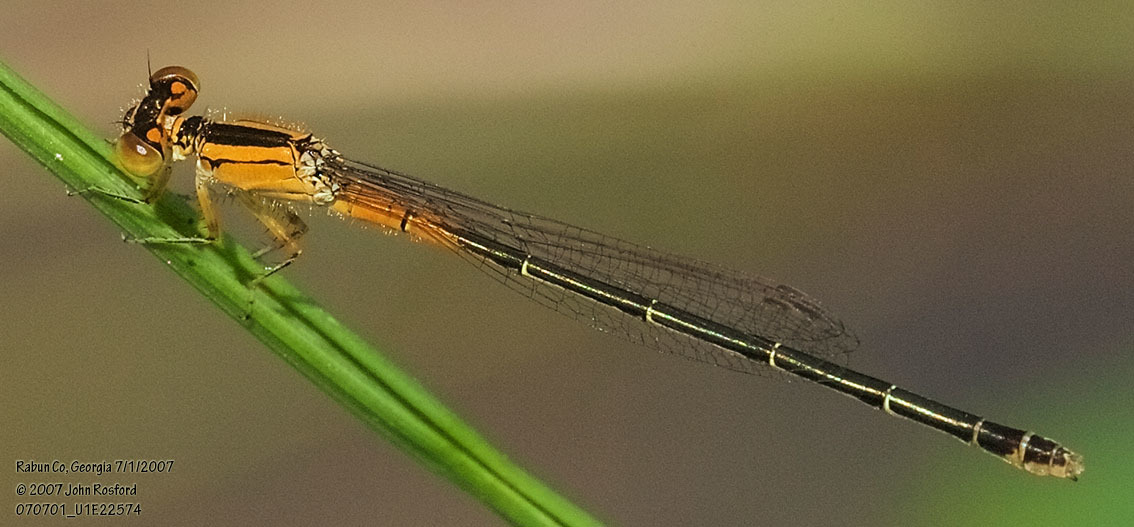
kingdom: Animalia
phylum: Arthropoda
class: Insecta
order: Odonata
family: Coenagrionidae
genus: Ischnura
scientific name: Ischnura verticalis
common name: Eastern forktail
